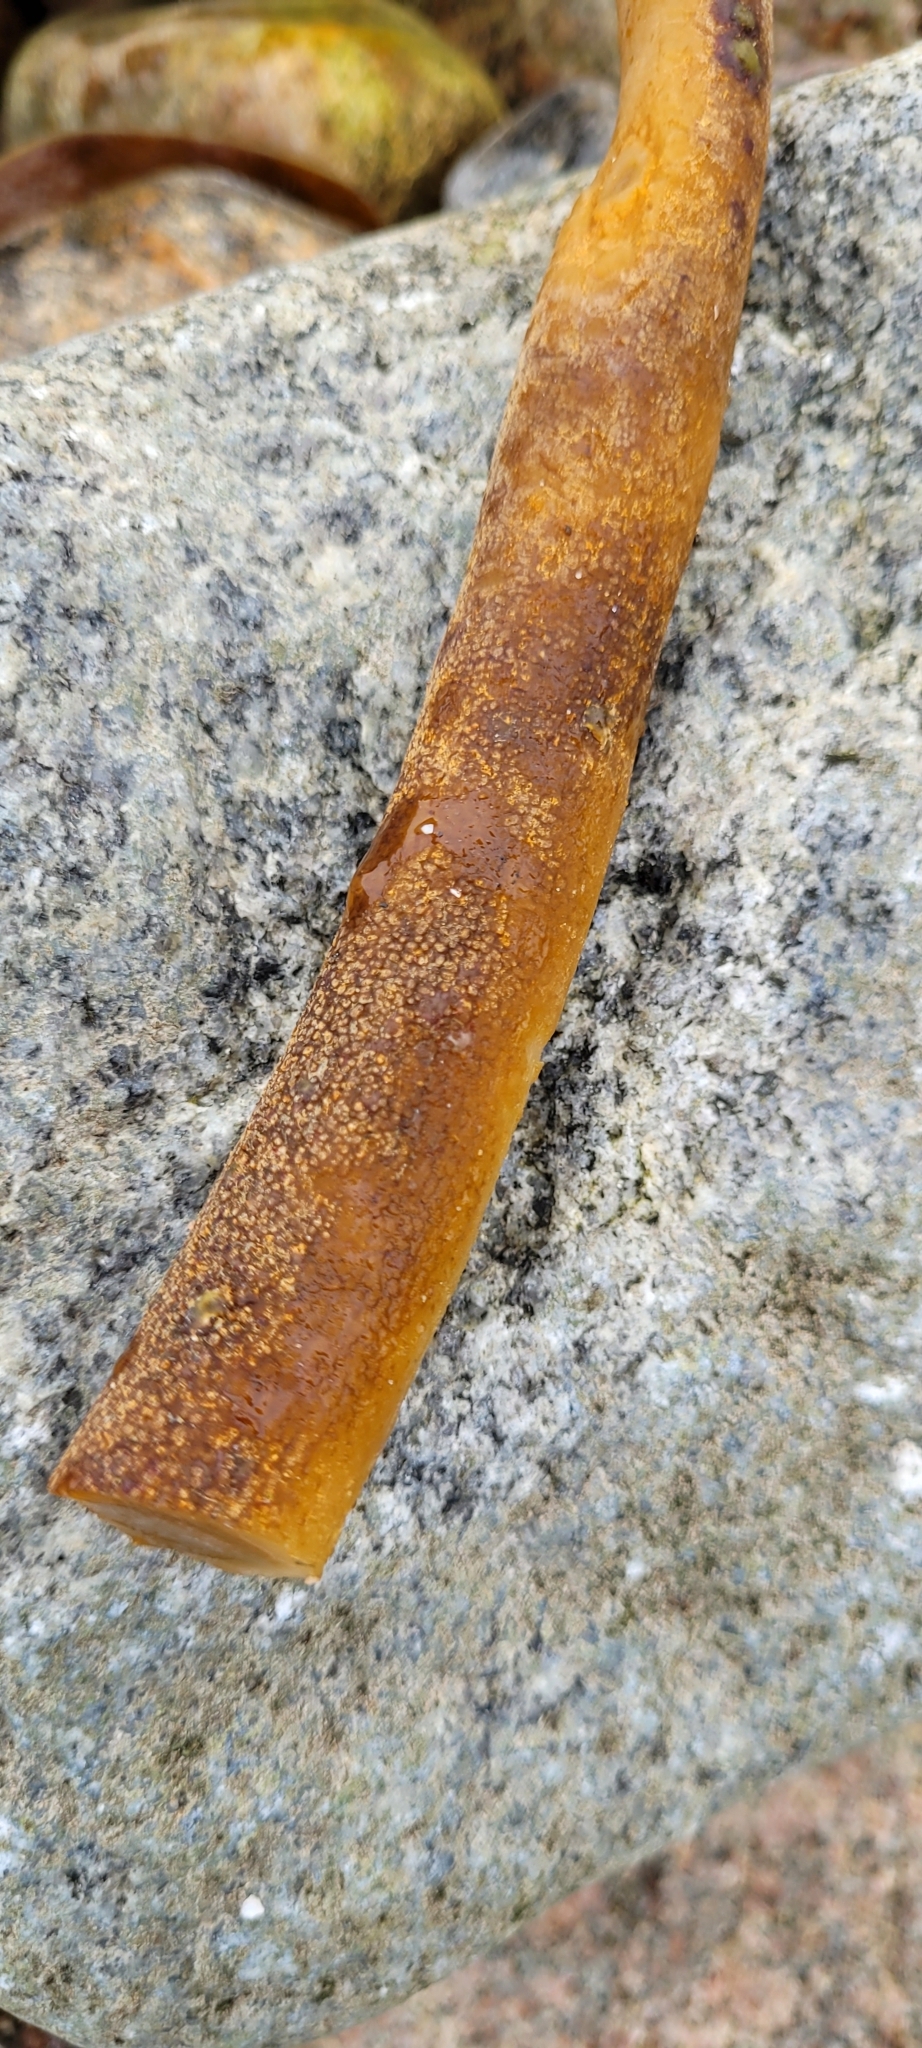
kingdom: Chromista
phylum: Ochrophyta
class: Phaeophyceae
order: Laminariales
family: Laminariaceae
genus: Laminaria
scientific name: Laminaria hyperborea
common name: Cuvie
